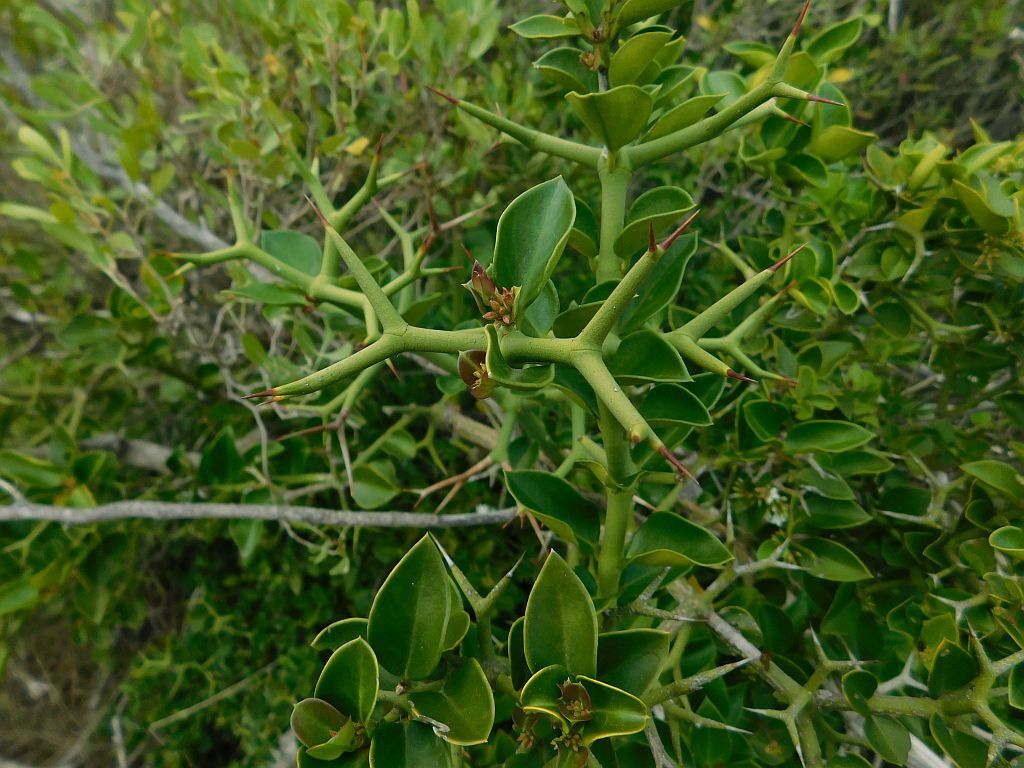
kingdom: Plantae
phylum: Tracheophyta
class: Magnoliopsida
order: Gentianales
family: Apocynaceae
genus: Carissa
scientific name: Carissa bispinosa
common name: Forest num-num
